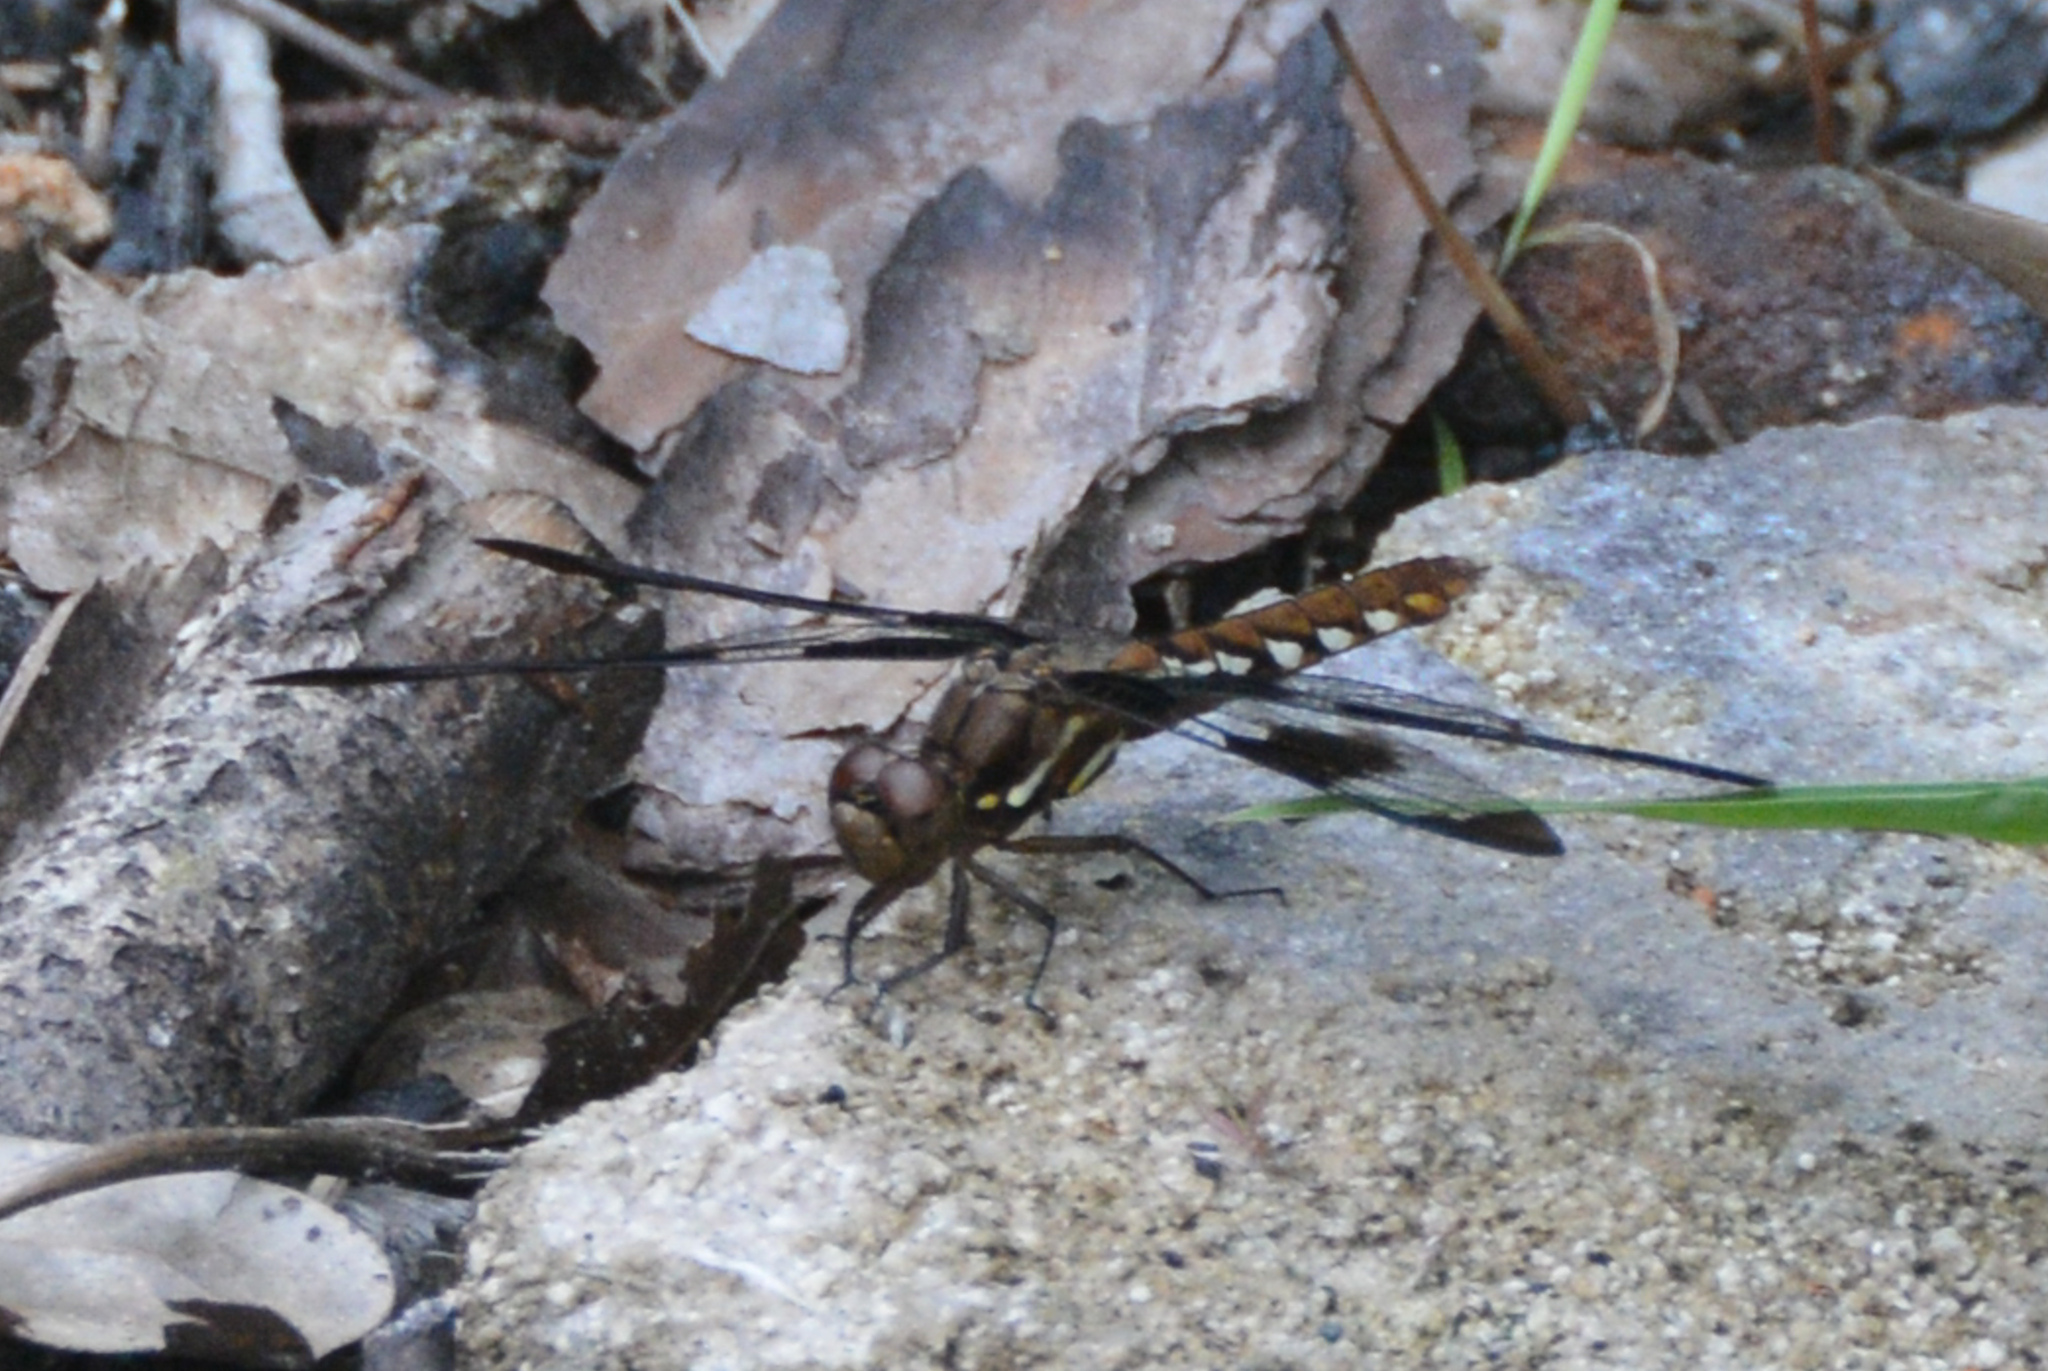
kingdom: Animalia
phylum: Arthropoda
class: Insecta
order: Odonata
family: Libellulidae
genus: Plathemis
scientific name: Plathemis lydia
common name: Common whitetail
